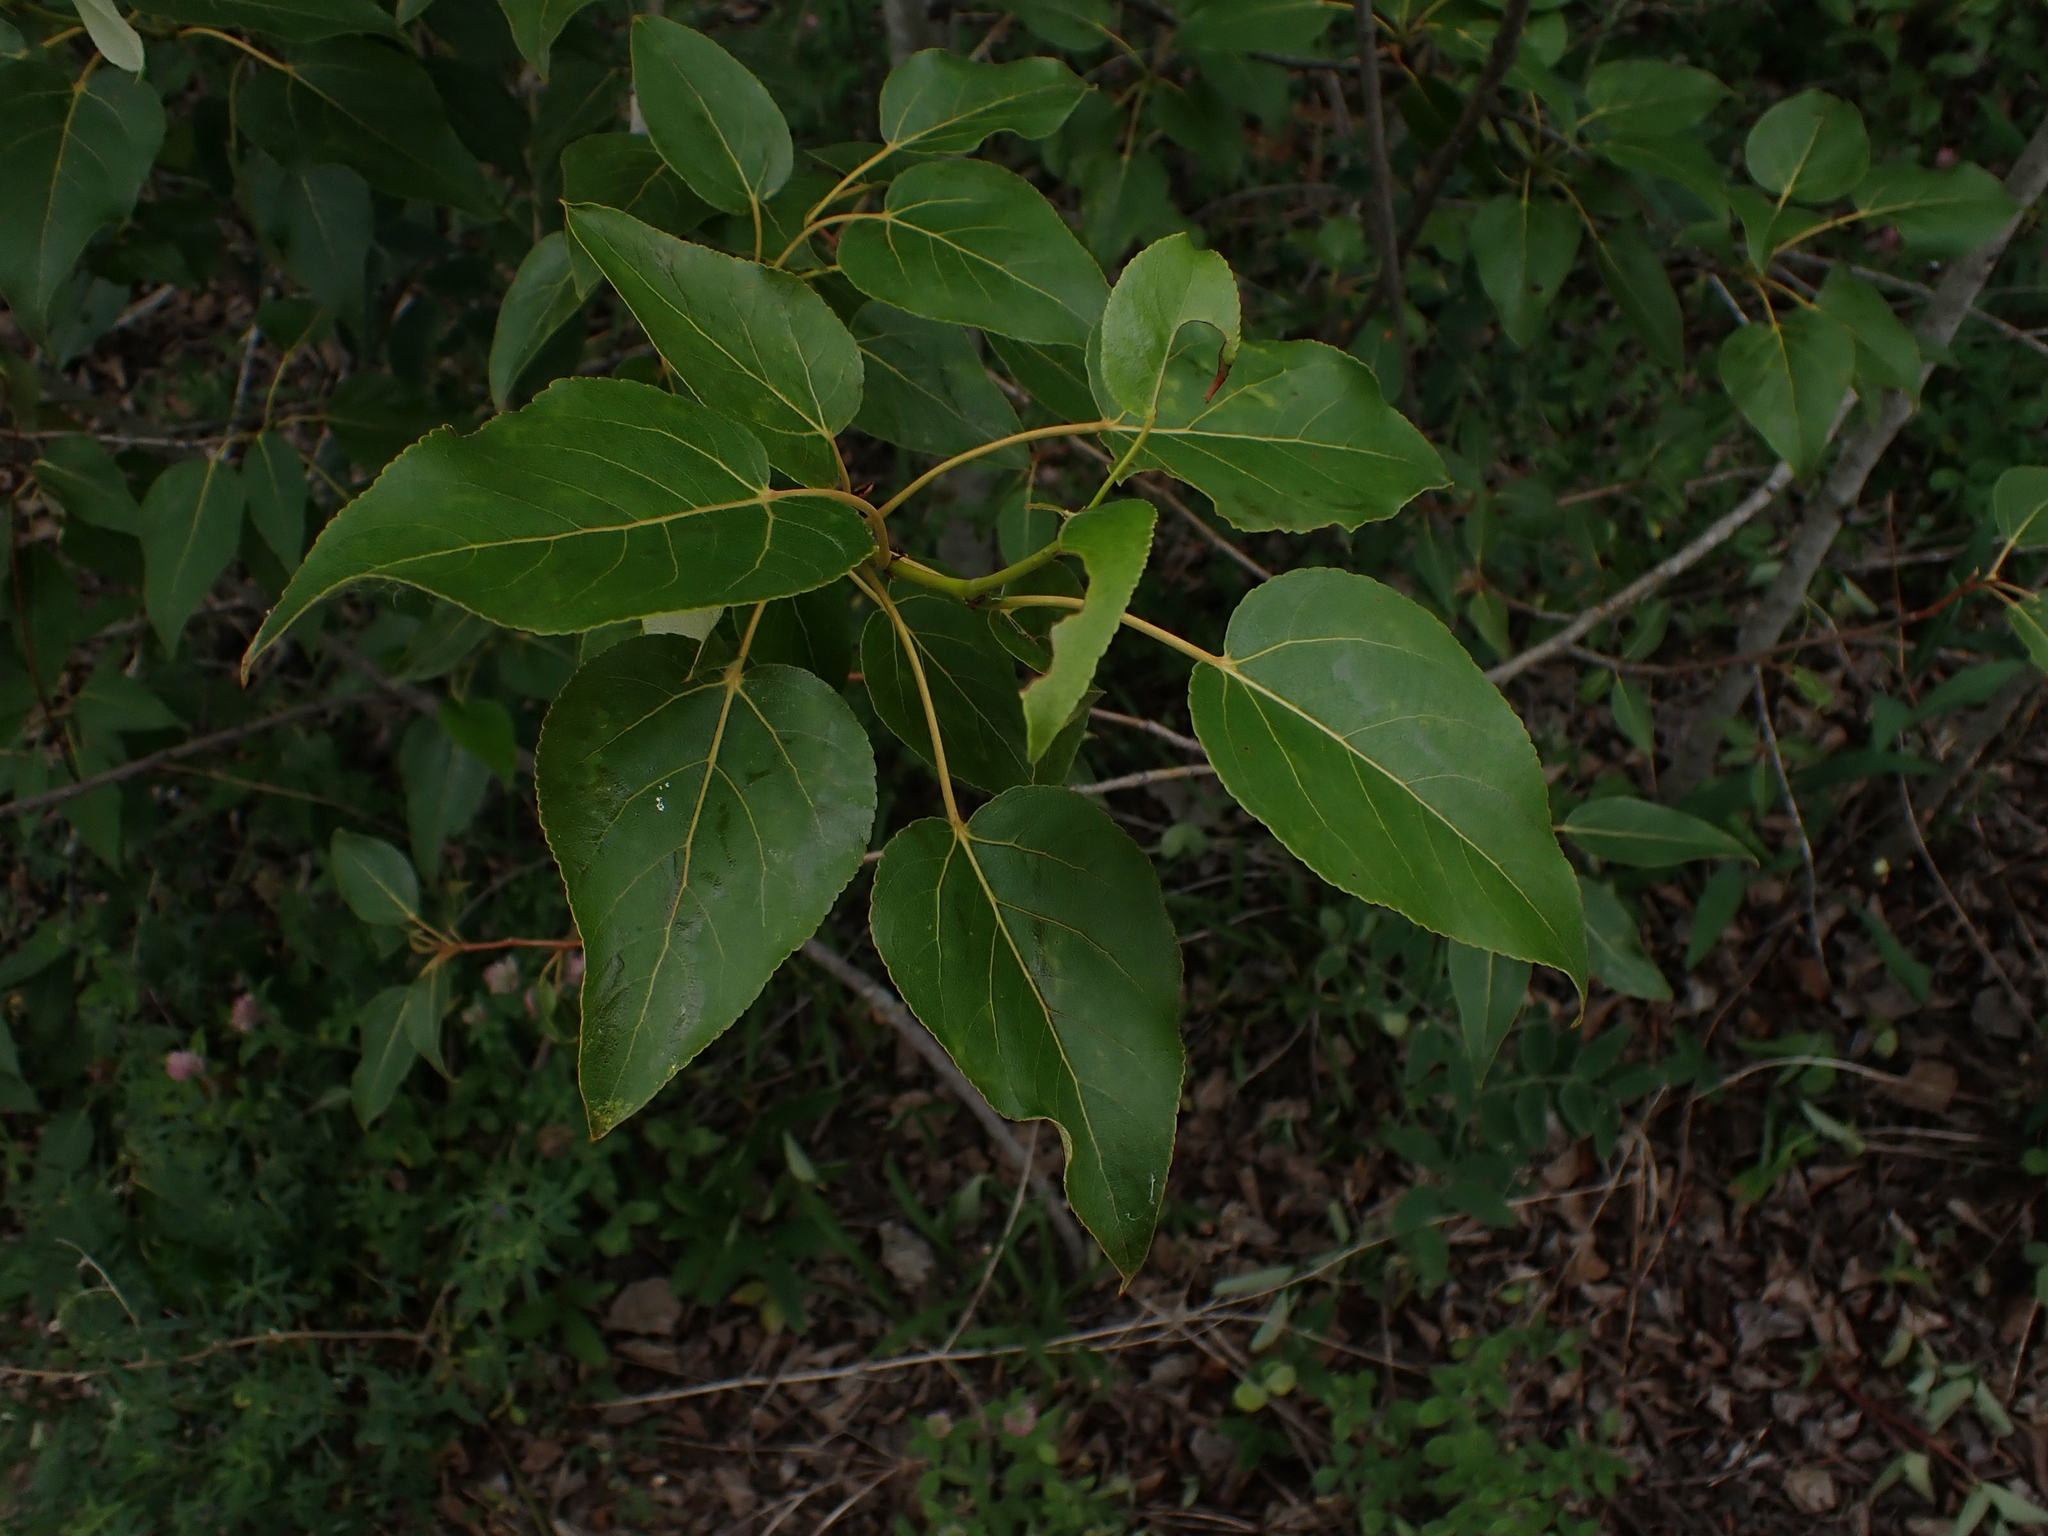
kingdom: Plantae
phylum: Tracheophyta
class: Magnoliopsida
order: Malpighiales
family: Salicaceae
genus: Populus
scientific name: Populus balsamifera
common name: Balsam poplar
